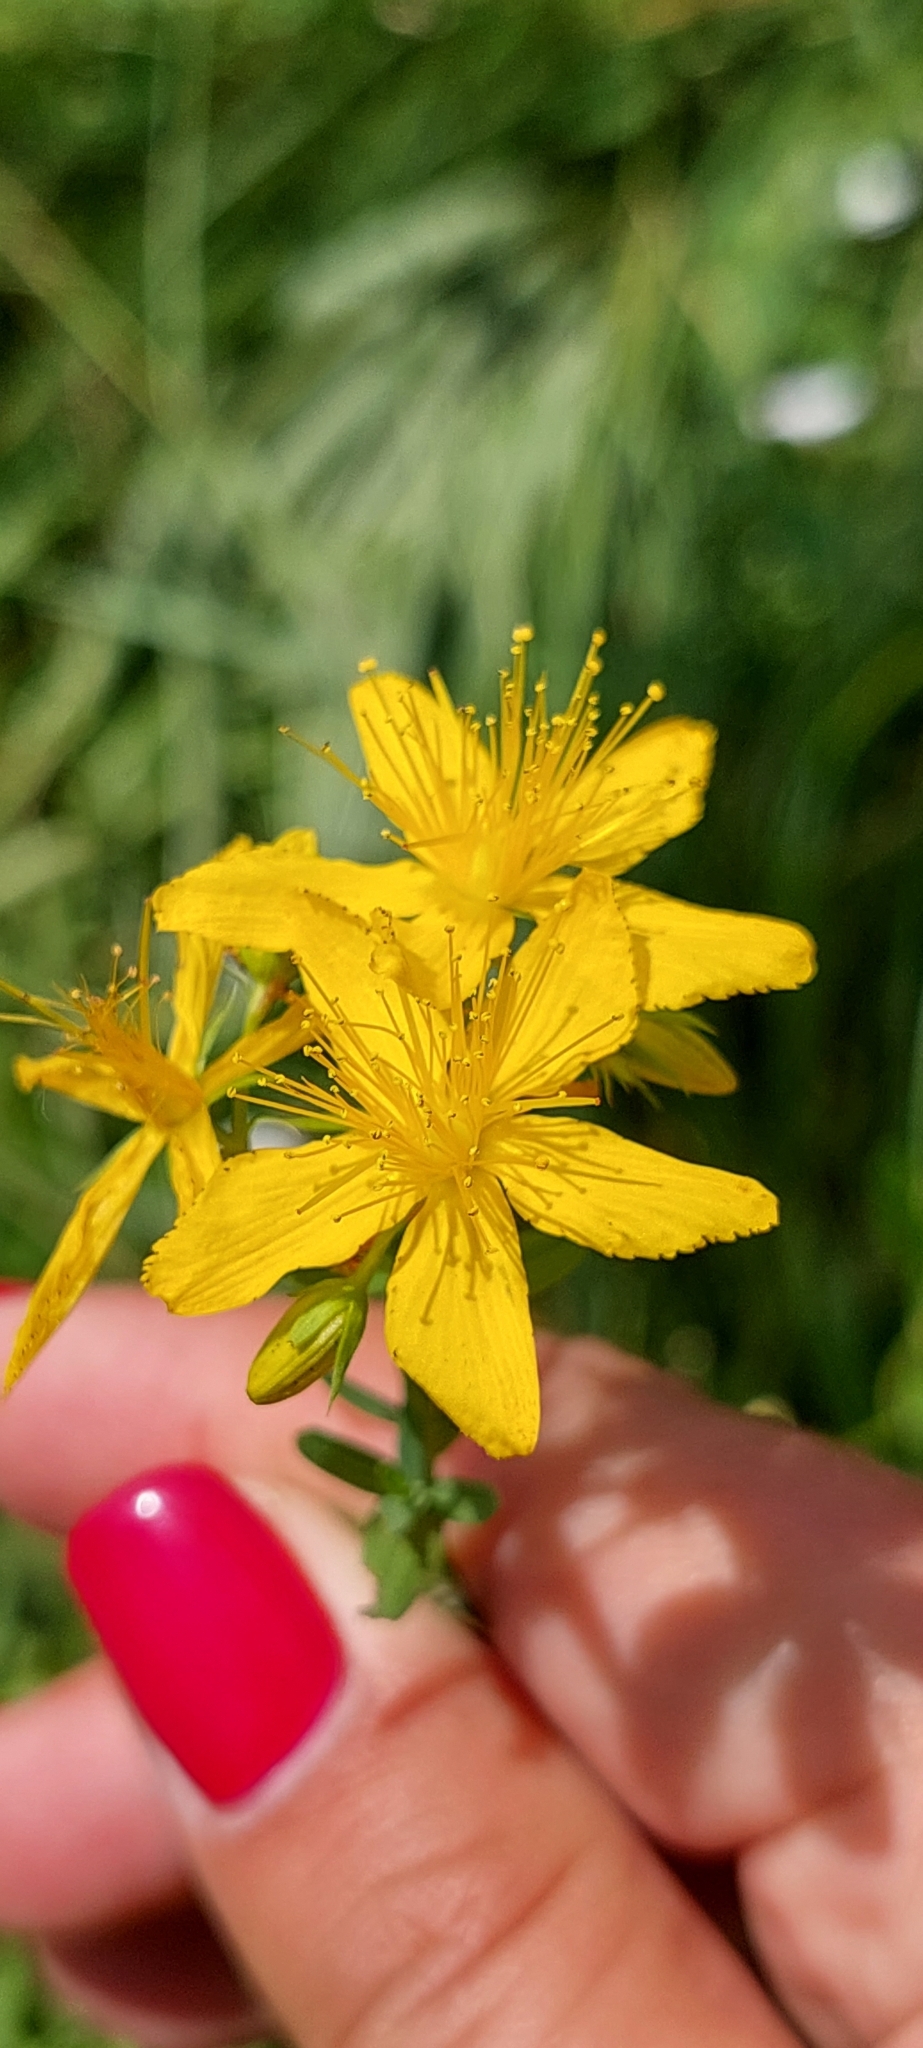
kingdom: Plantae
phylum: Tracheophyta
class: Magnoliopsida
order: Malpighiales
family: Hypericaceae
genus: Hypericum
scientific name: Hypericum perforatum
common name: Common st. johnswort
